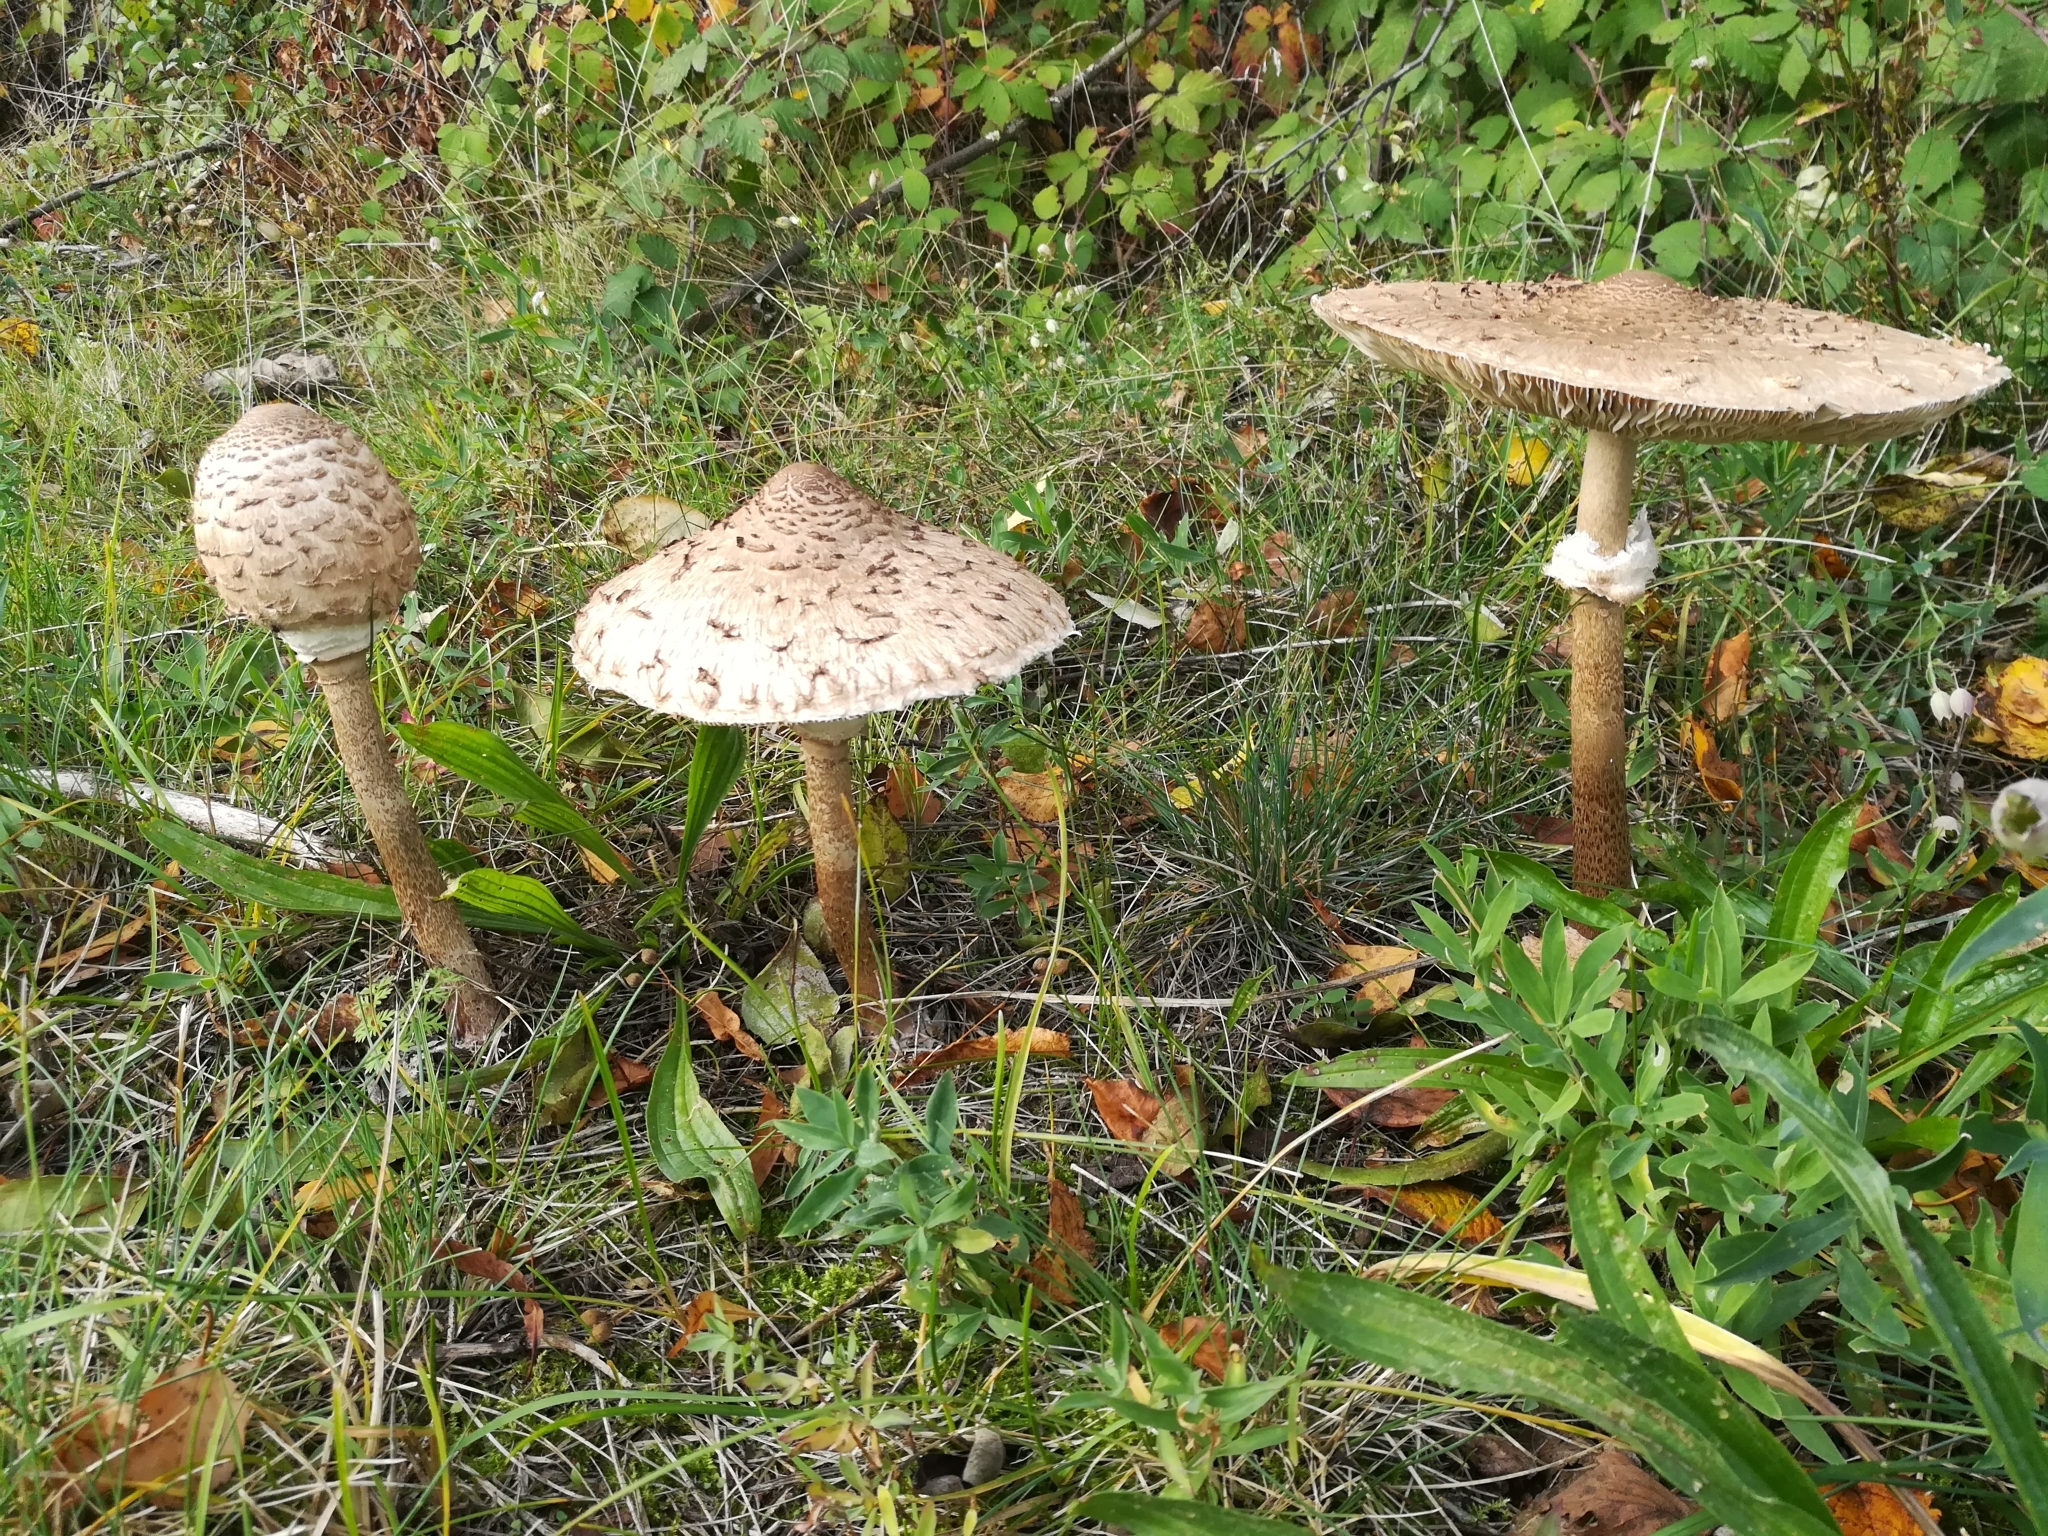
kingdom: Fungi
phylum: Basidiomycota
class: Agaricomycetes
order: Agaricales
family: Agaricaceae
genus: Macrolepiota
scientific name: Macrolepiota procera
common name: Parasol
